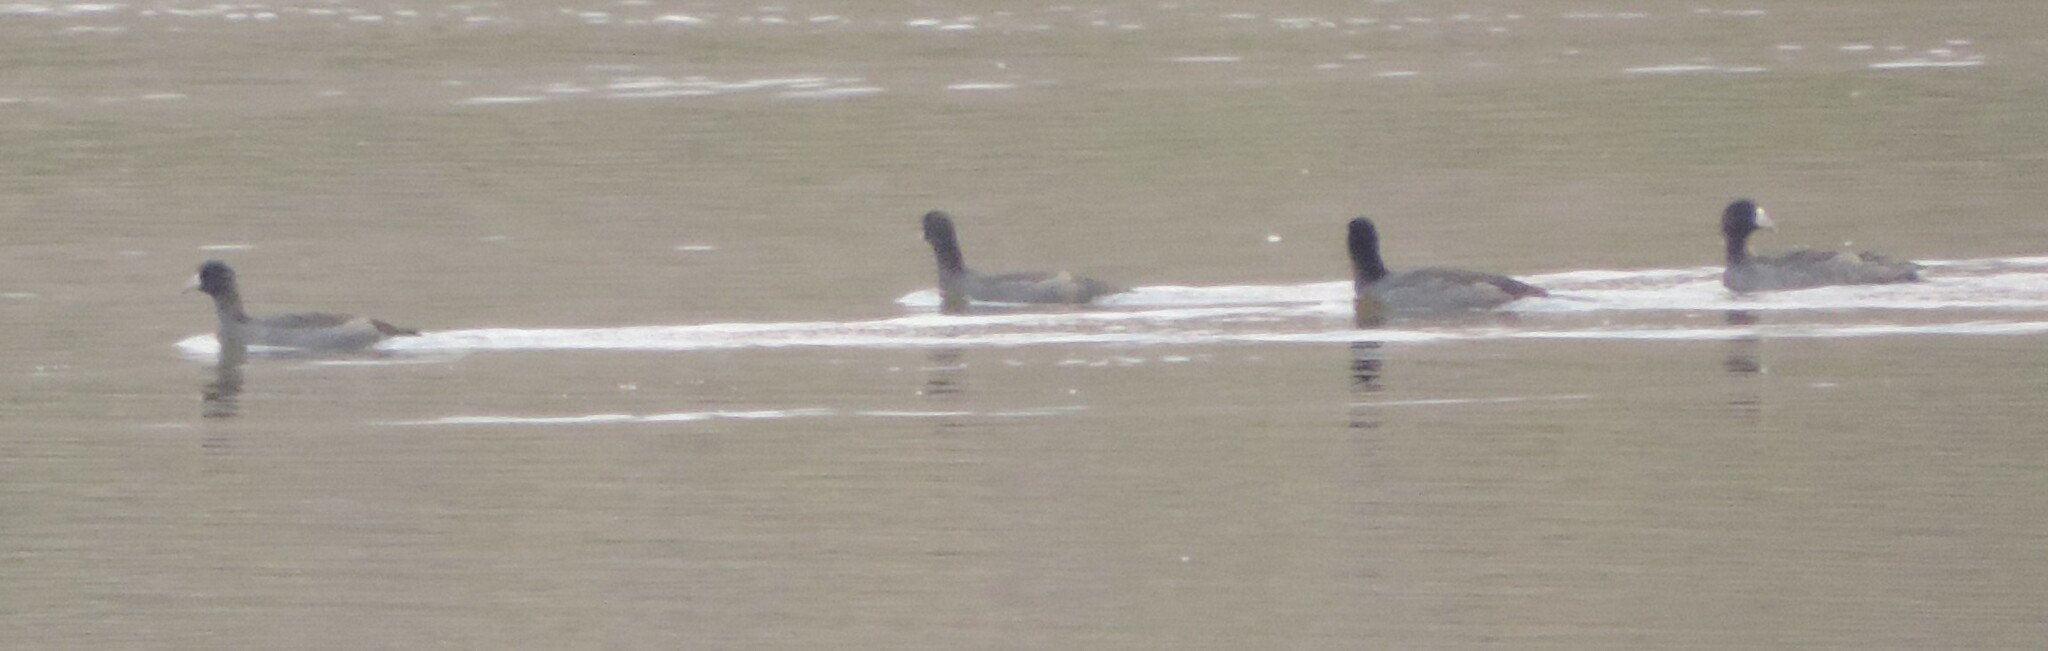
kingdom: Animalia
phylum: Chordata
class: Aves
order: Gruiformes
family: Rallidae
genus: Fulica
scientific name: Fulica americana
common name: American coot
